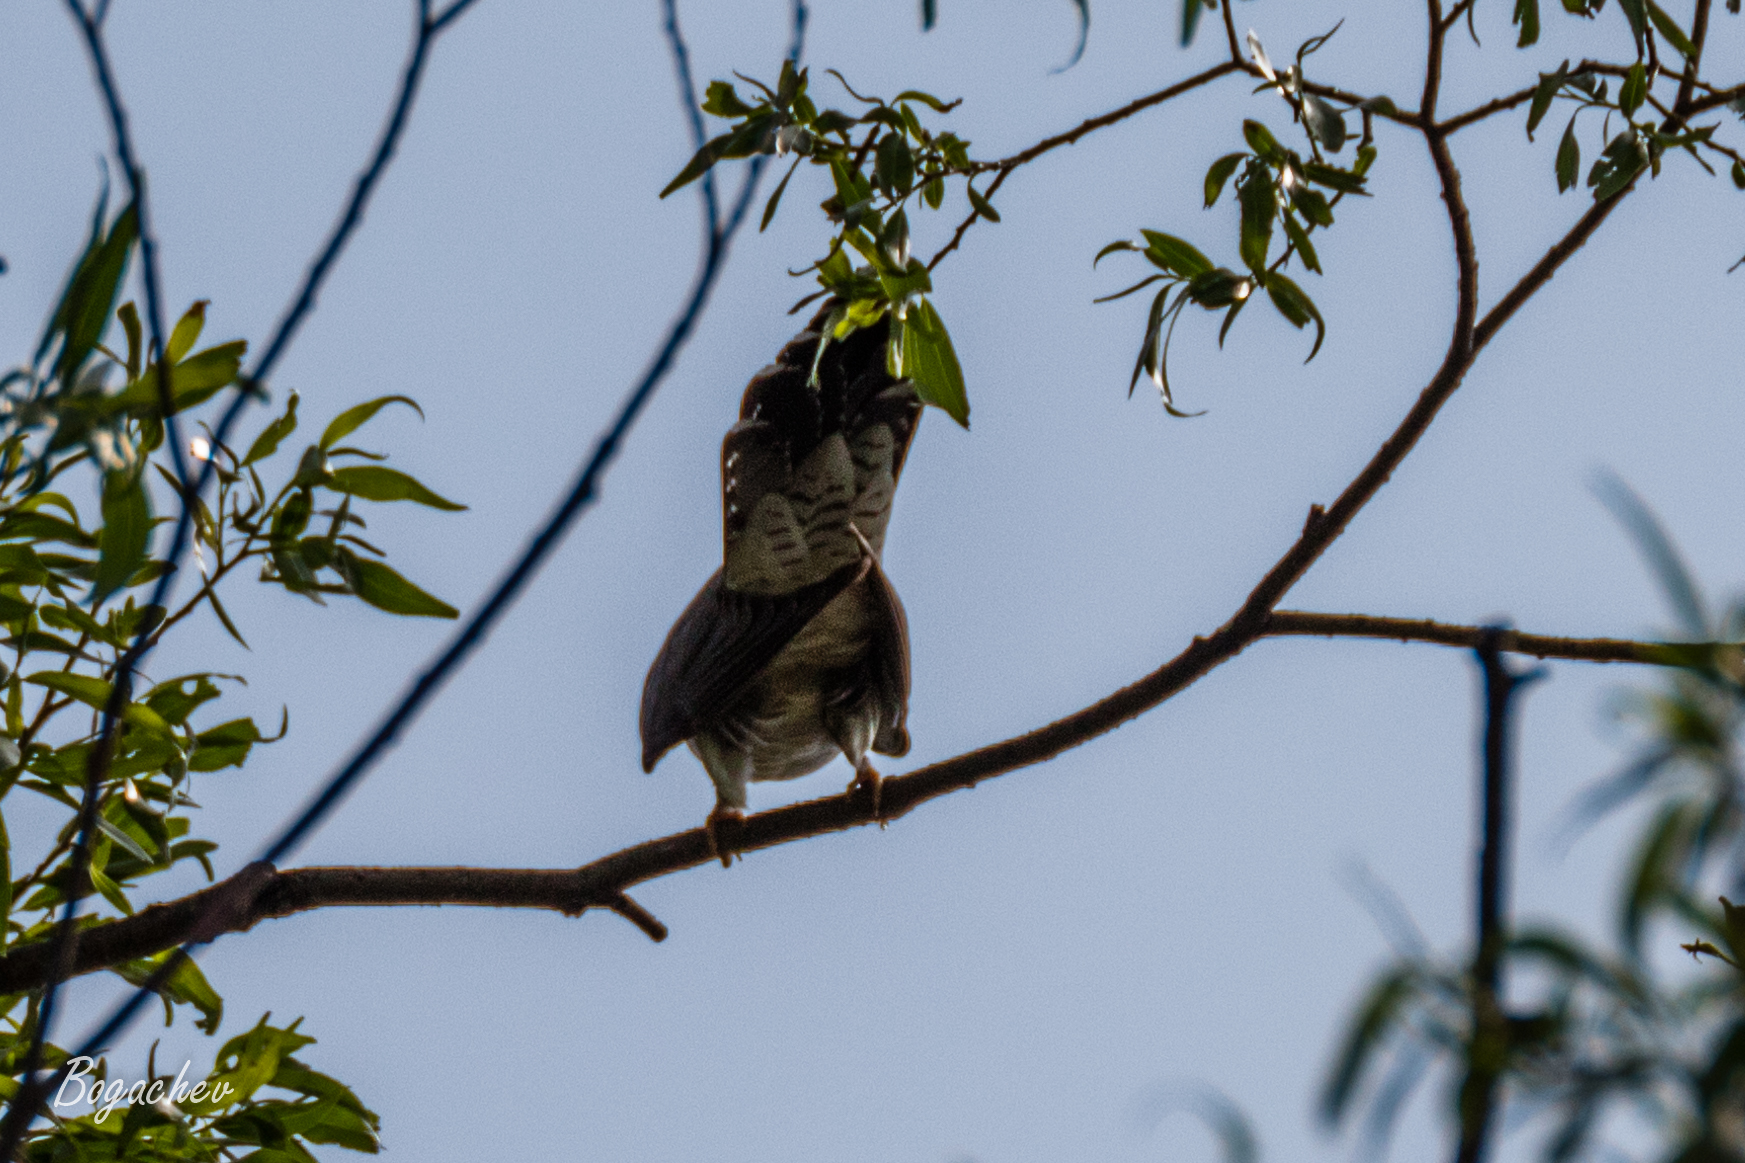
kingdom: Animalia
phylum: Chordata
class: Aves
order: Cuculiformes
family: Cuculidae
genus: Cuculus
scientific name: Cuculus canorus
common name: Common cuckoo
